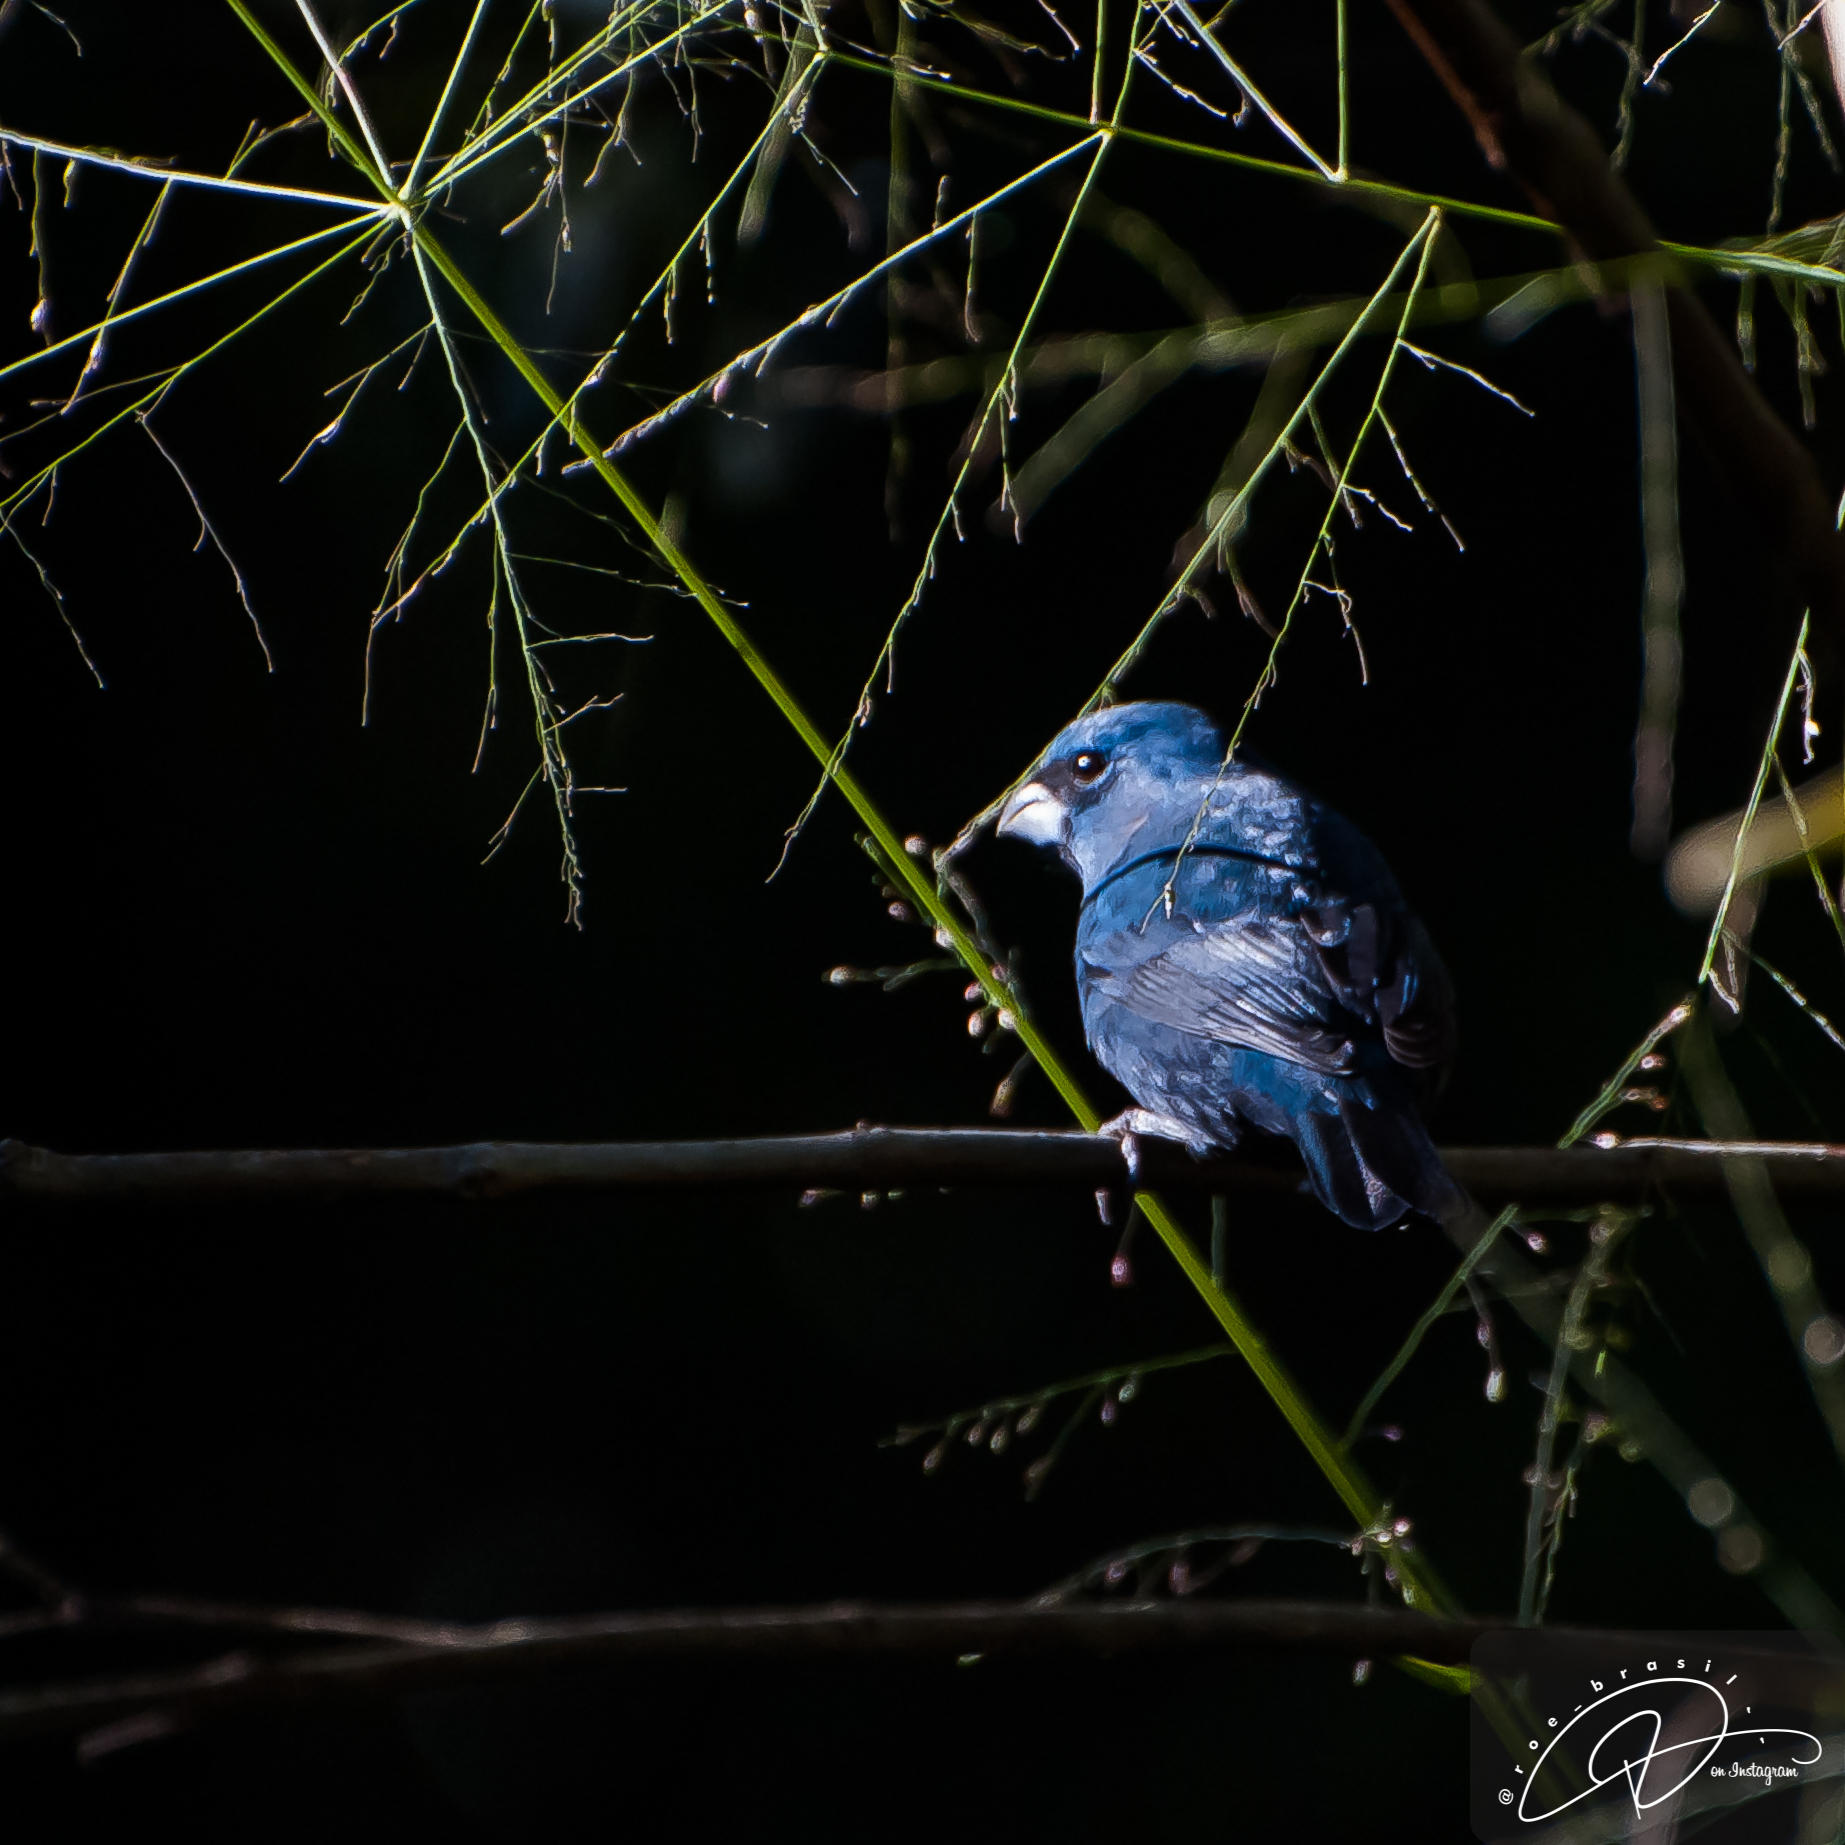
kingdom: Animalia
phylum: Chordata
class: Aves
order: Passeriformes
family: Cardinalidae
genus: Cyanoloxia
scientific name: Cyanoloxia glaucocaerulea
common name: Glaucous-blue grosbeak
